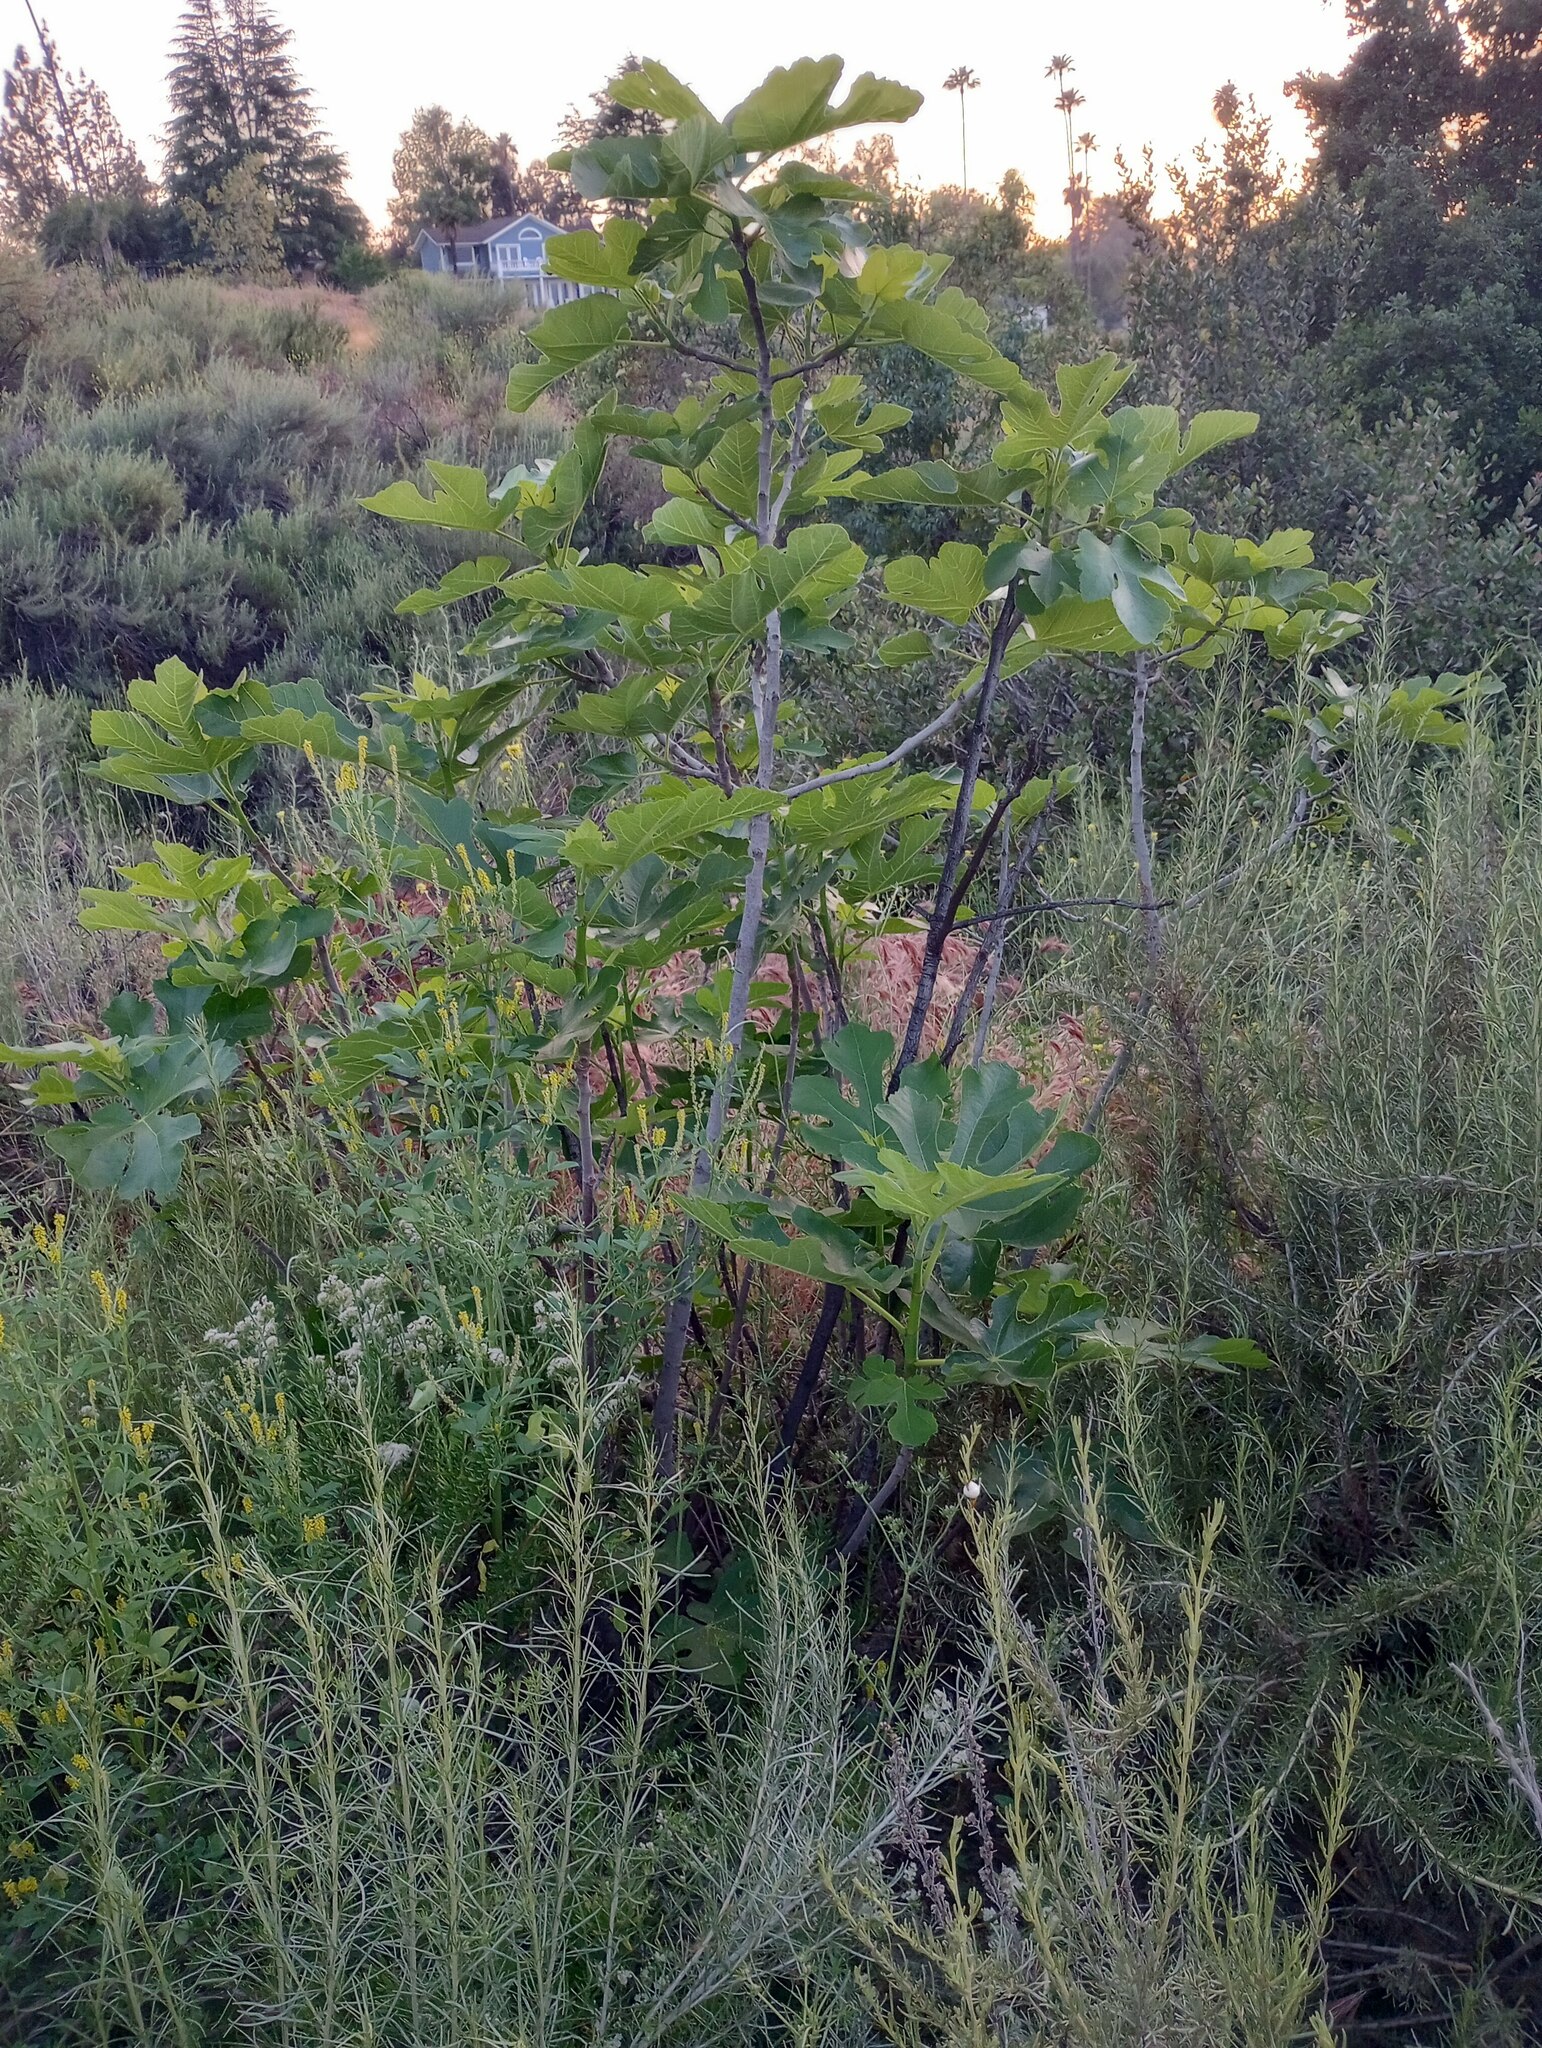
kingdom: Plantae
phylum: Tracheophyta
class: Magnoliopsida
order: Rosales
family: Moraceae
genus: Ficus
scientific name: Ficus carica
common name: Fig
